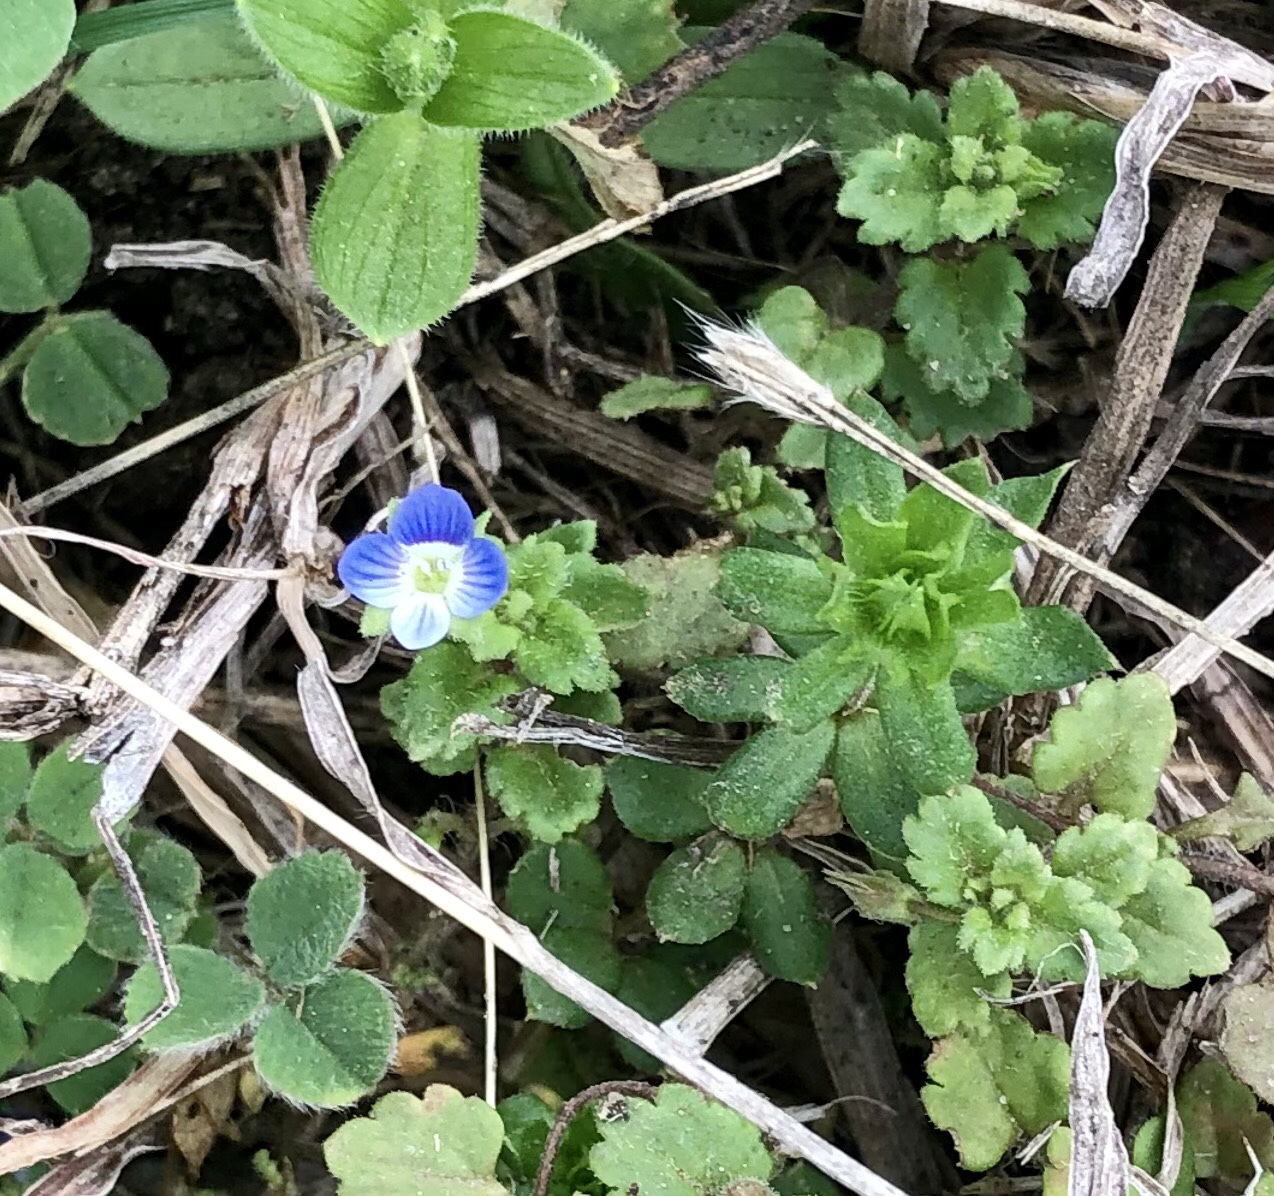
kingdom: Plantae
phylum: Tracheophyta
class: Magnoliopsida
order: Lamiales
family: Plantaginaceae
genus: Veronica
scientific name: Veronica persica
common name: Common field-speedwell
